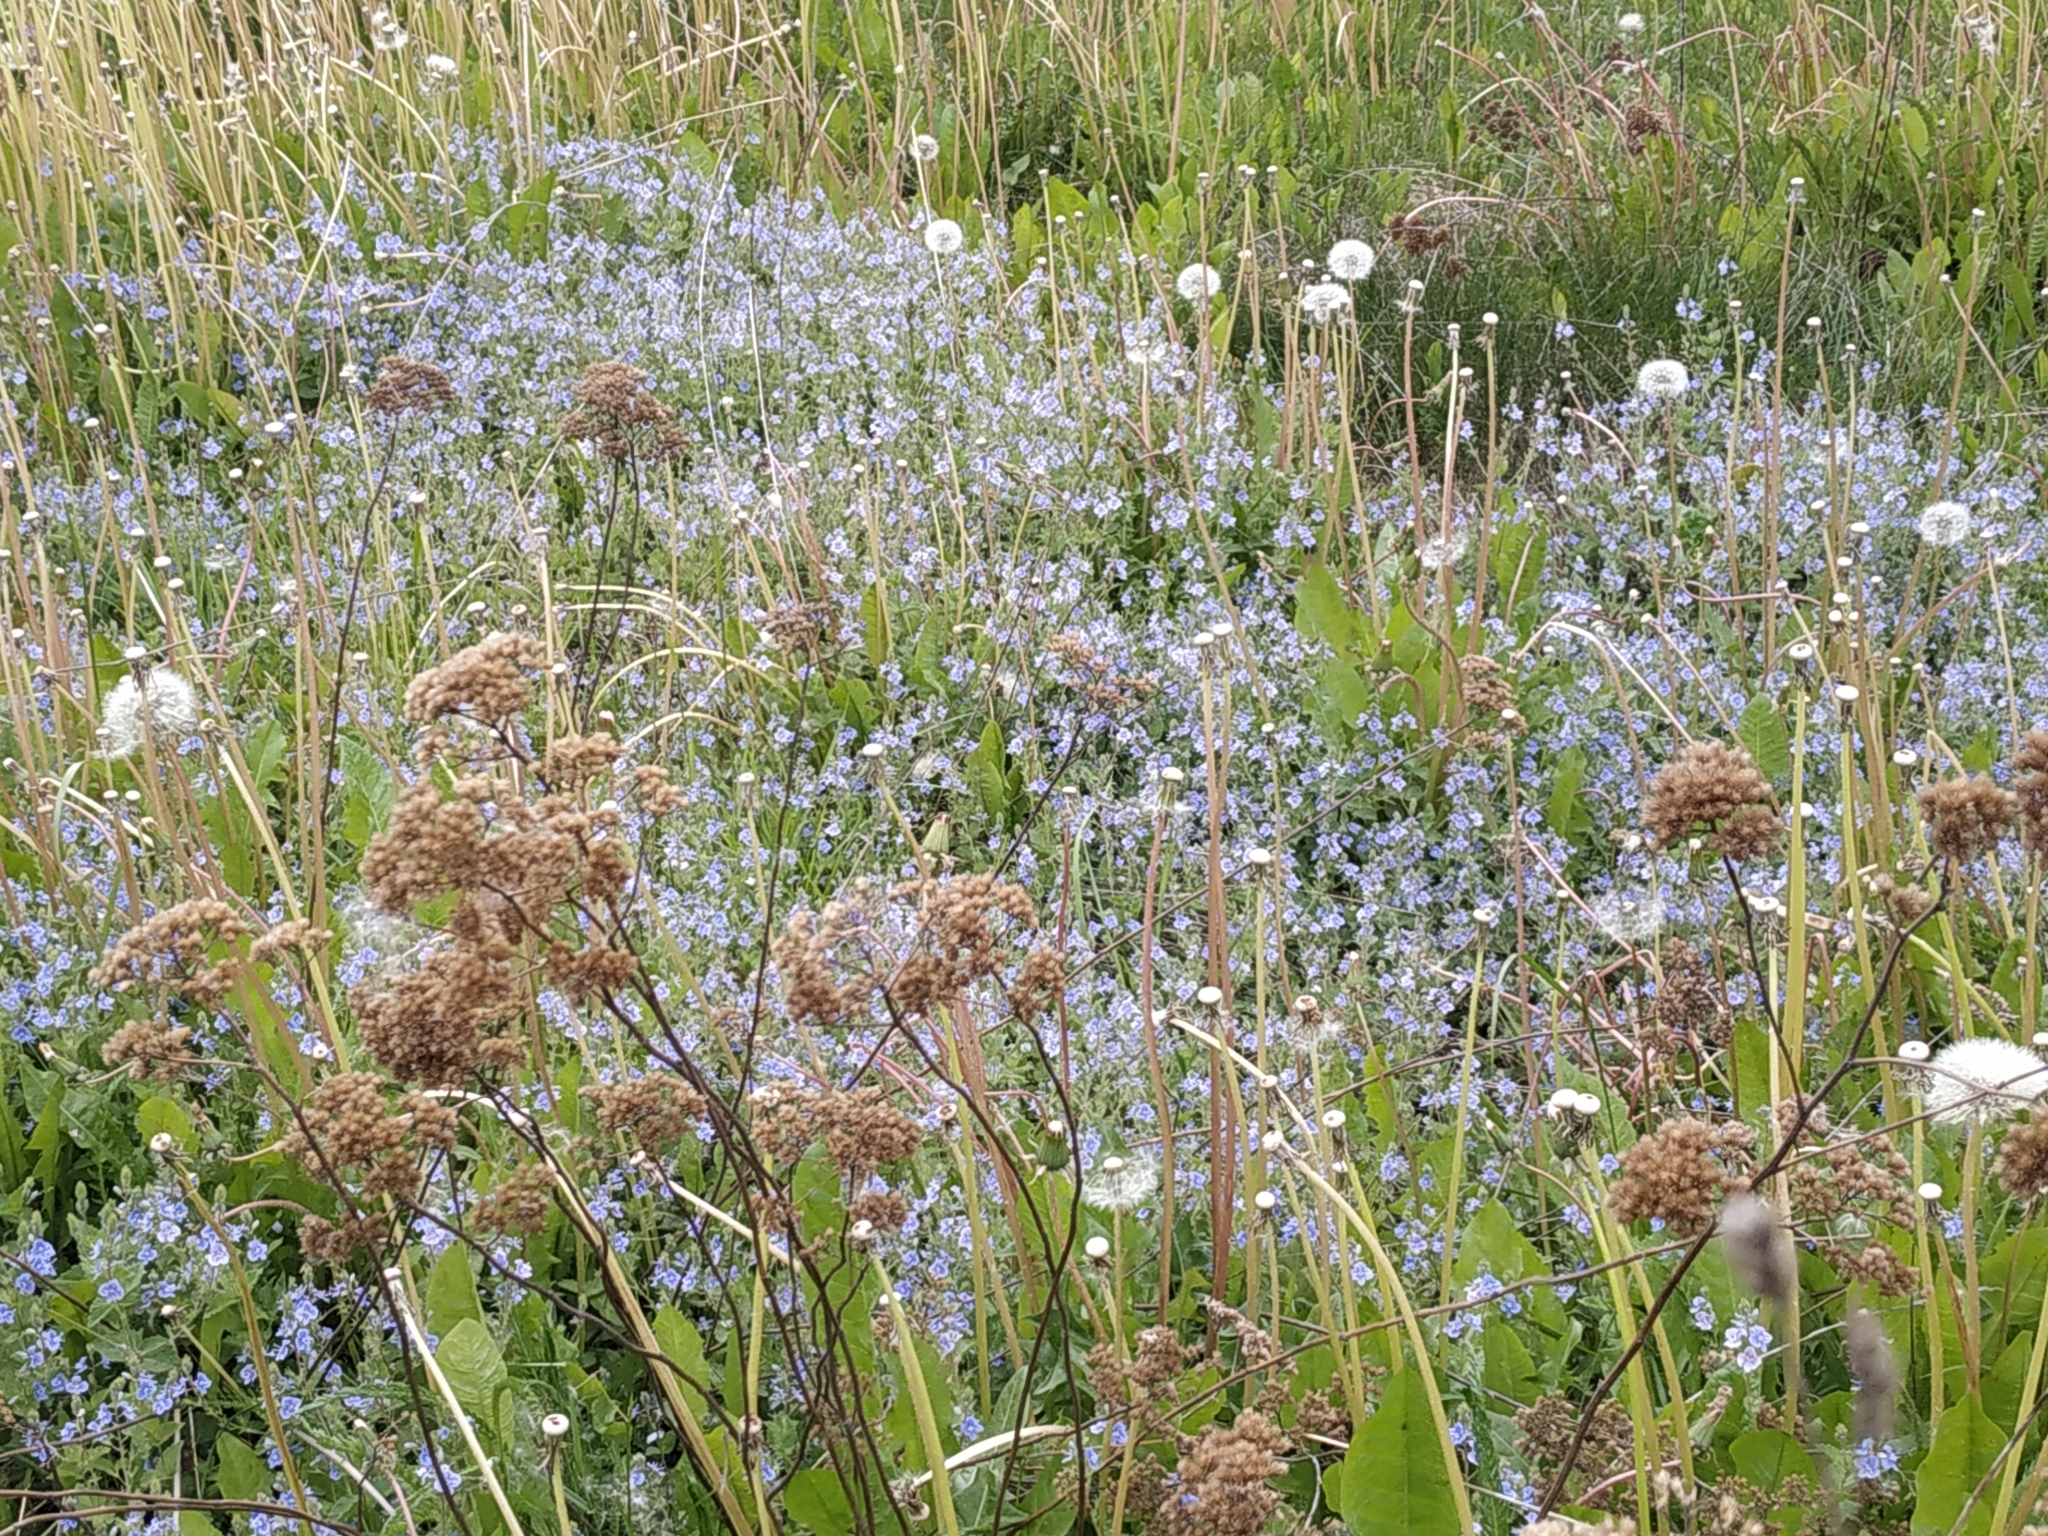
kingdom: Plantae
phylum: Tracheophyta
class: Magnoliopsida
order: Lamiales
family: Plantaginaceae
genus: Veronica
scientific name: Veronica chamaedrys
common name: Germander speedwell
